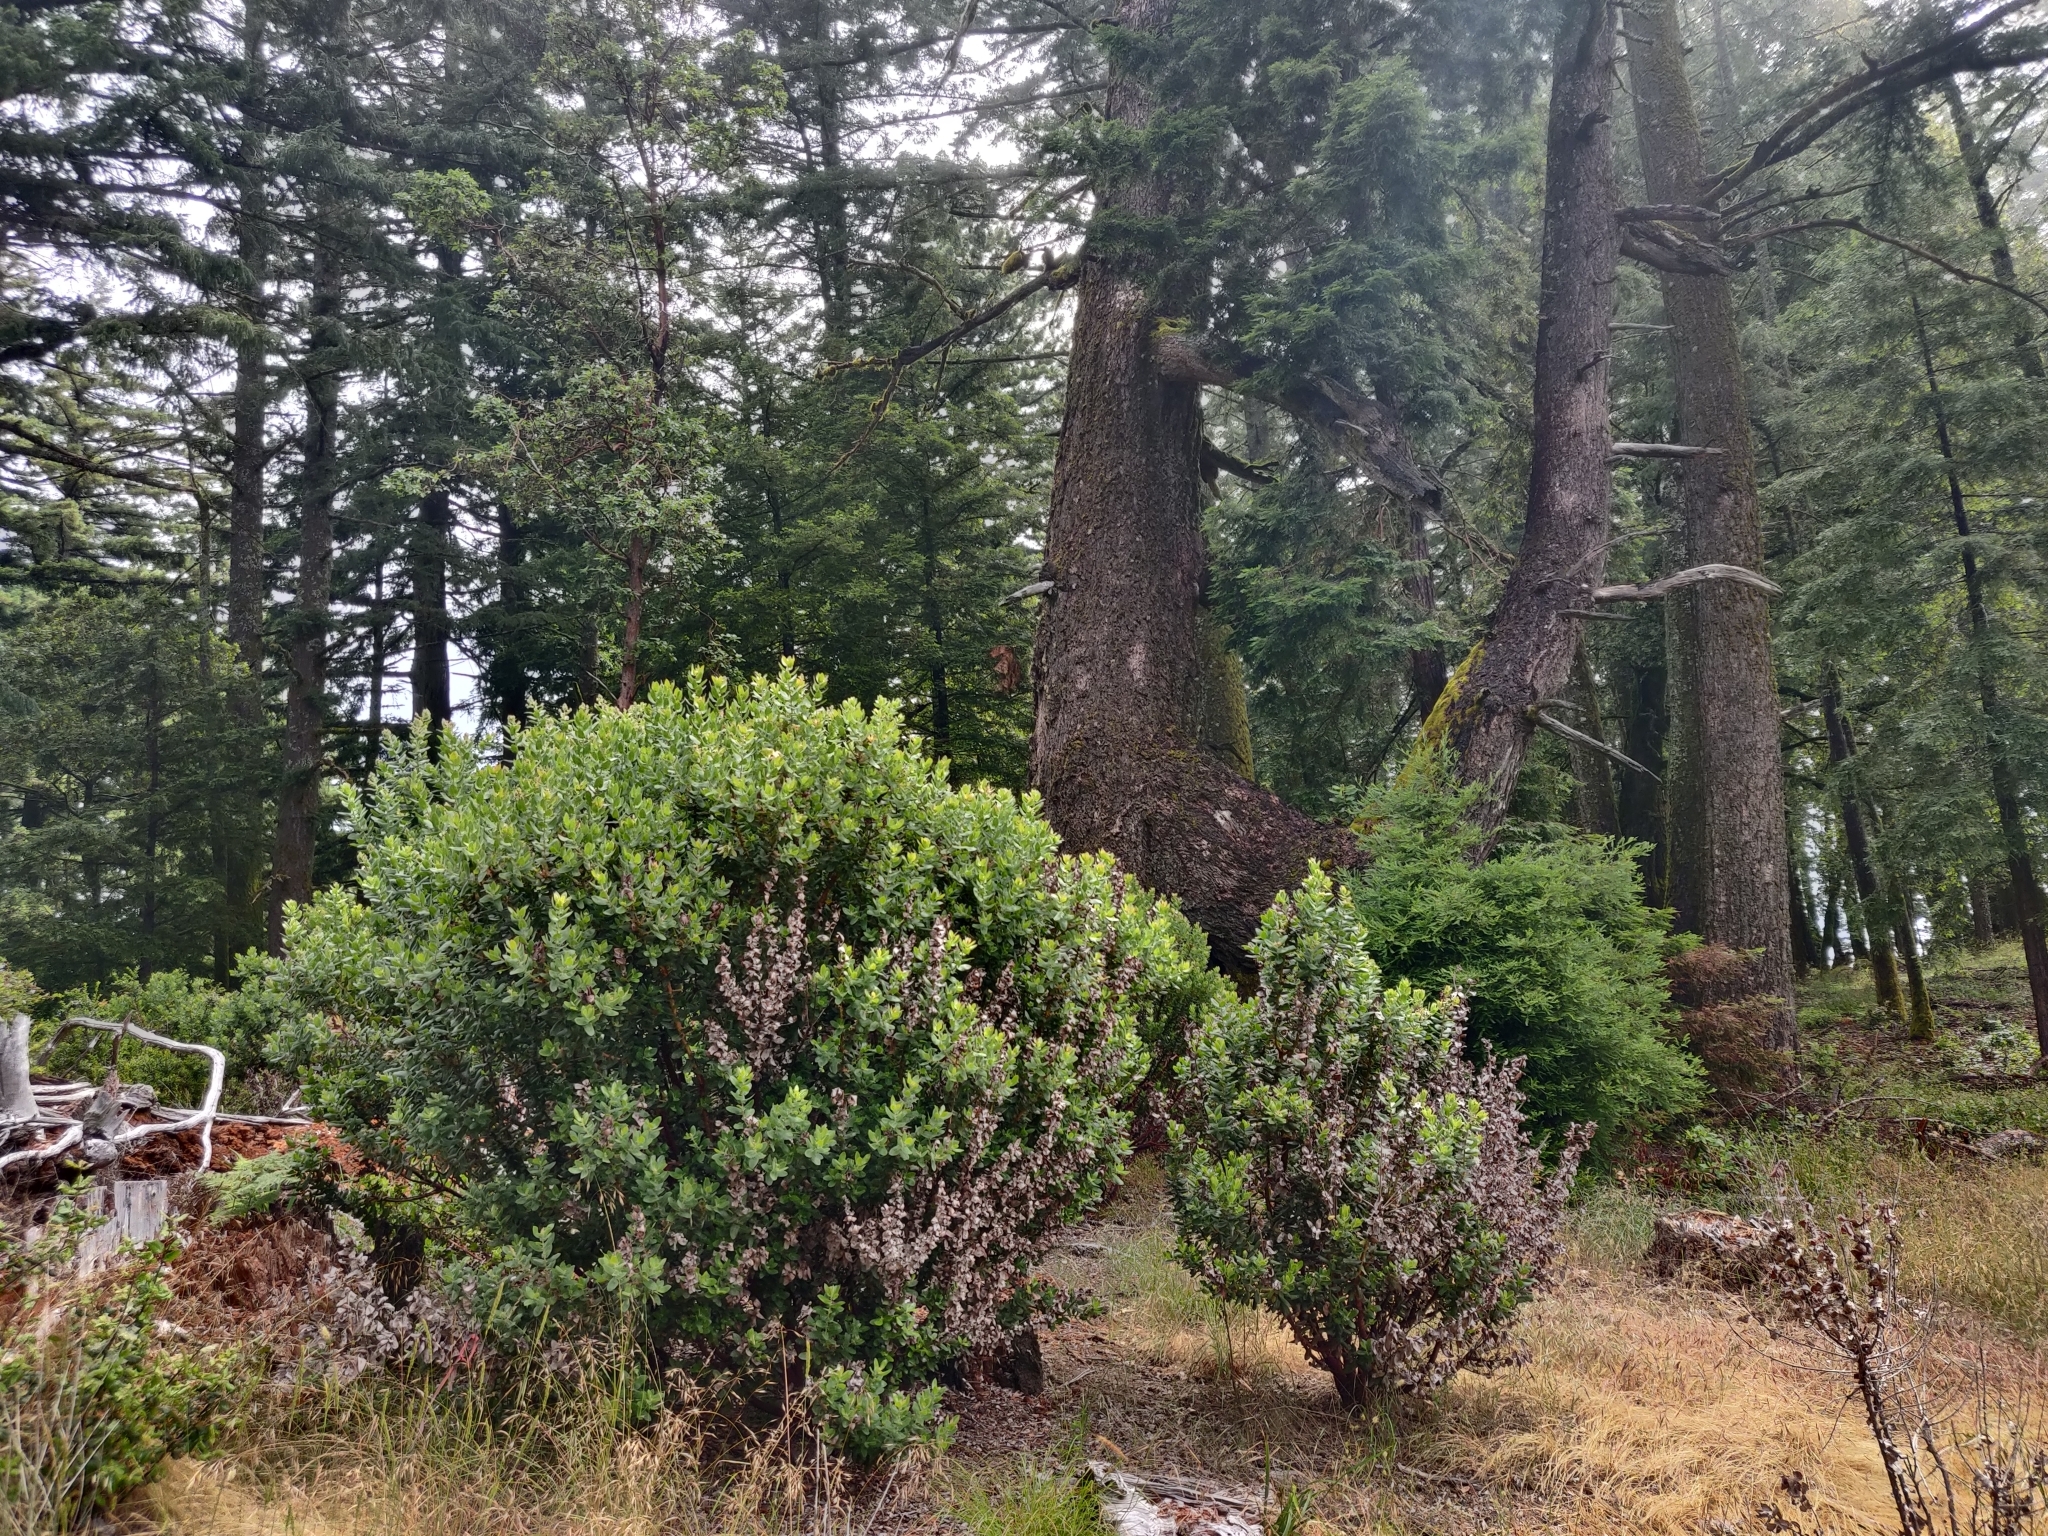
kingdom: Plantae
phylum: Tracheophyta
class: Magnoliopsida
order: Ericales
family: Ericaceae
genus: Arctostaphylos
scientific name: Arctostaphylos regismontana
